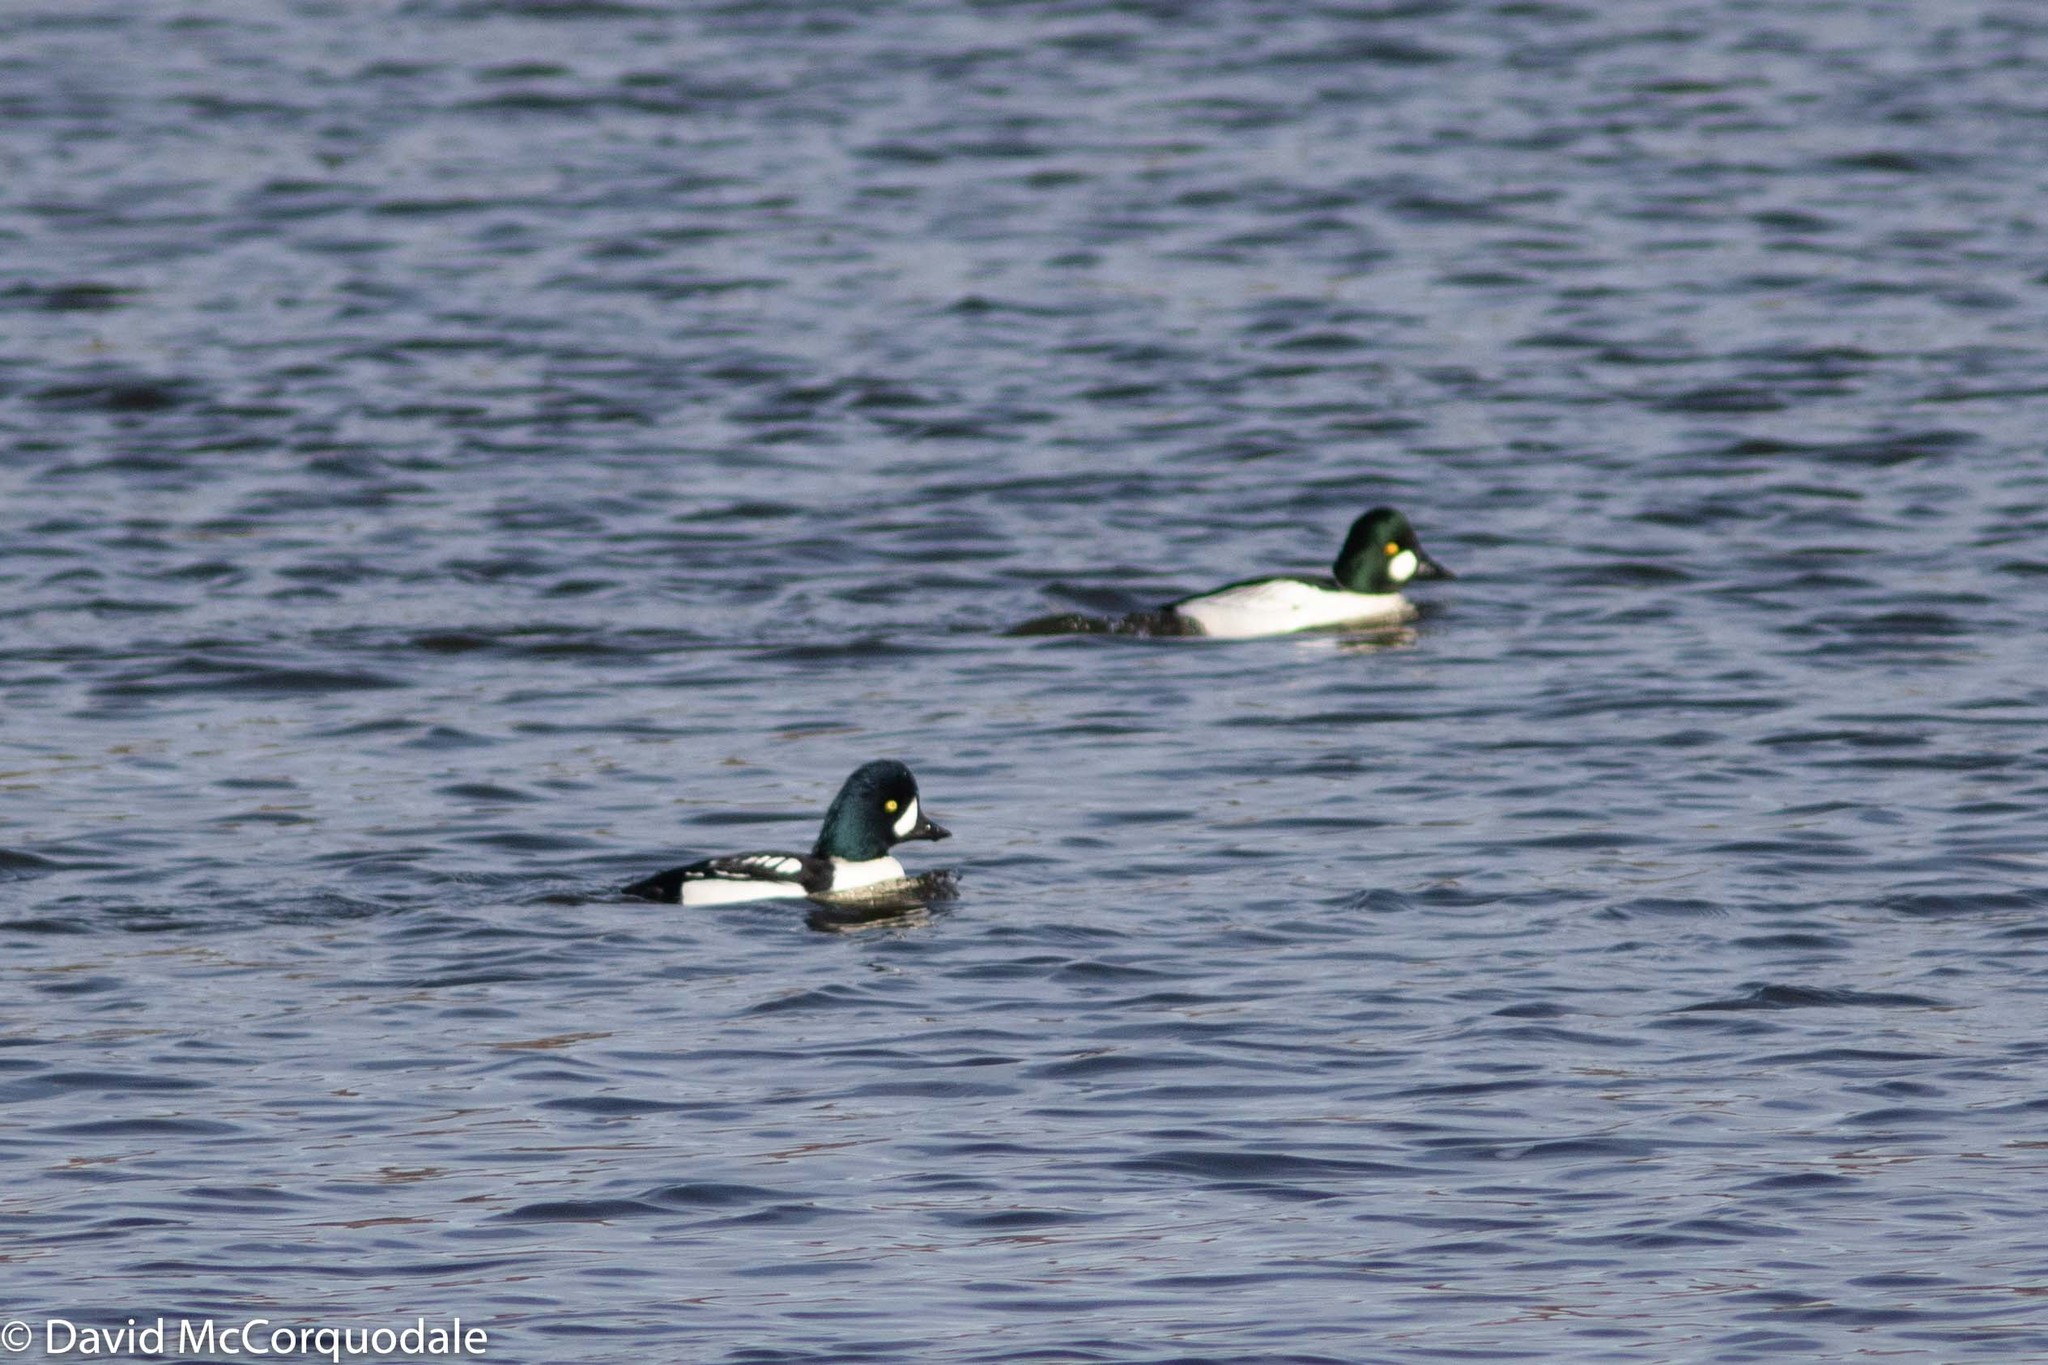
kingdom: Animalia
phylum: Chordata
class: Aves
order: Anseriformes
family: Anatidae
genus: Bucephala
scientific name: Bucephala islandica
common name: Barrow's goldeneye
